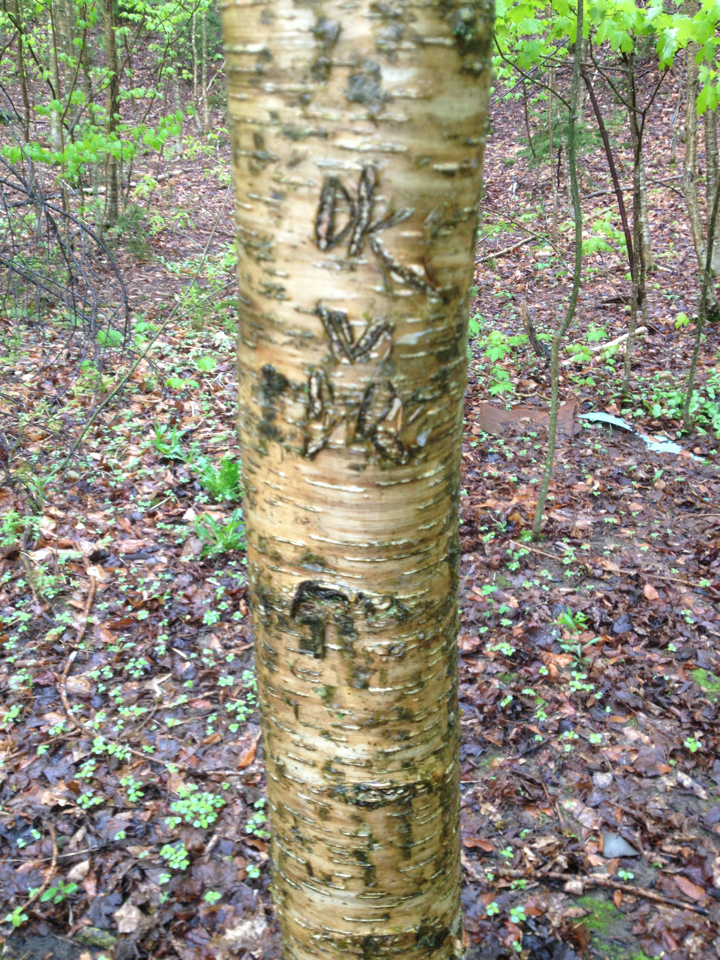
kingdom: Plantae
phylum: Tracheophyta
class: Magnoliopsida
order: Fagales
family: Betulaceae
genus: Betula
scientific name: Betula alleghaniensis
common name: Yellow birch
